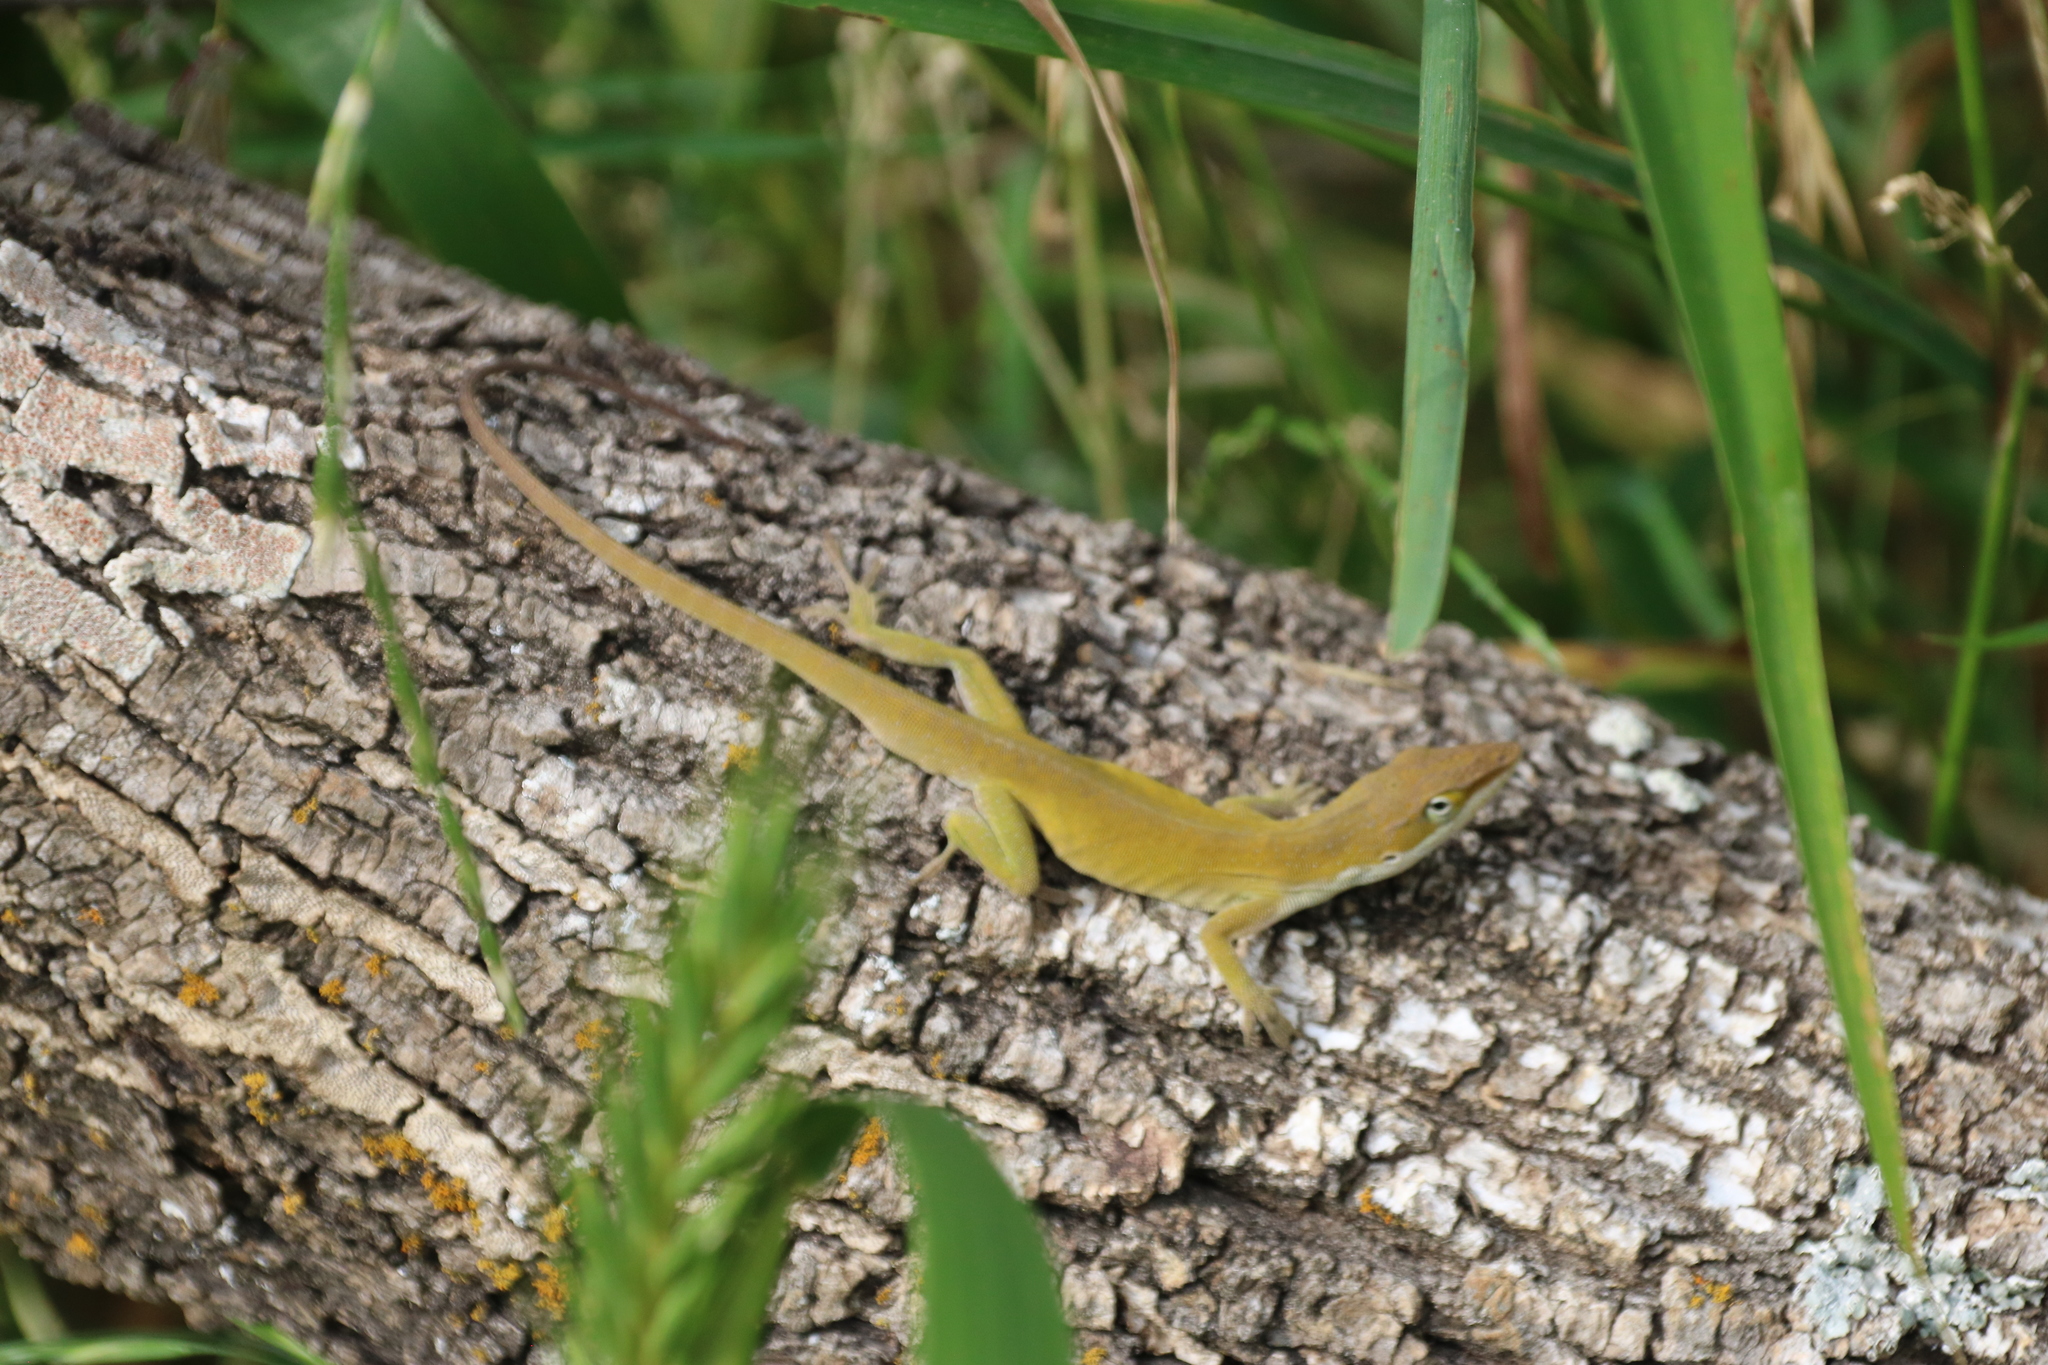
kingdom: Animalia
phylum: Chordata
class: Squamata
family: Dactyloidae
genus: Anolis
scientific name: Anolis carolinensis
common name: Green anole
